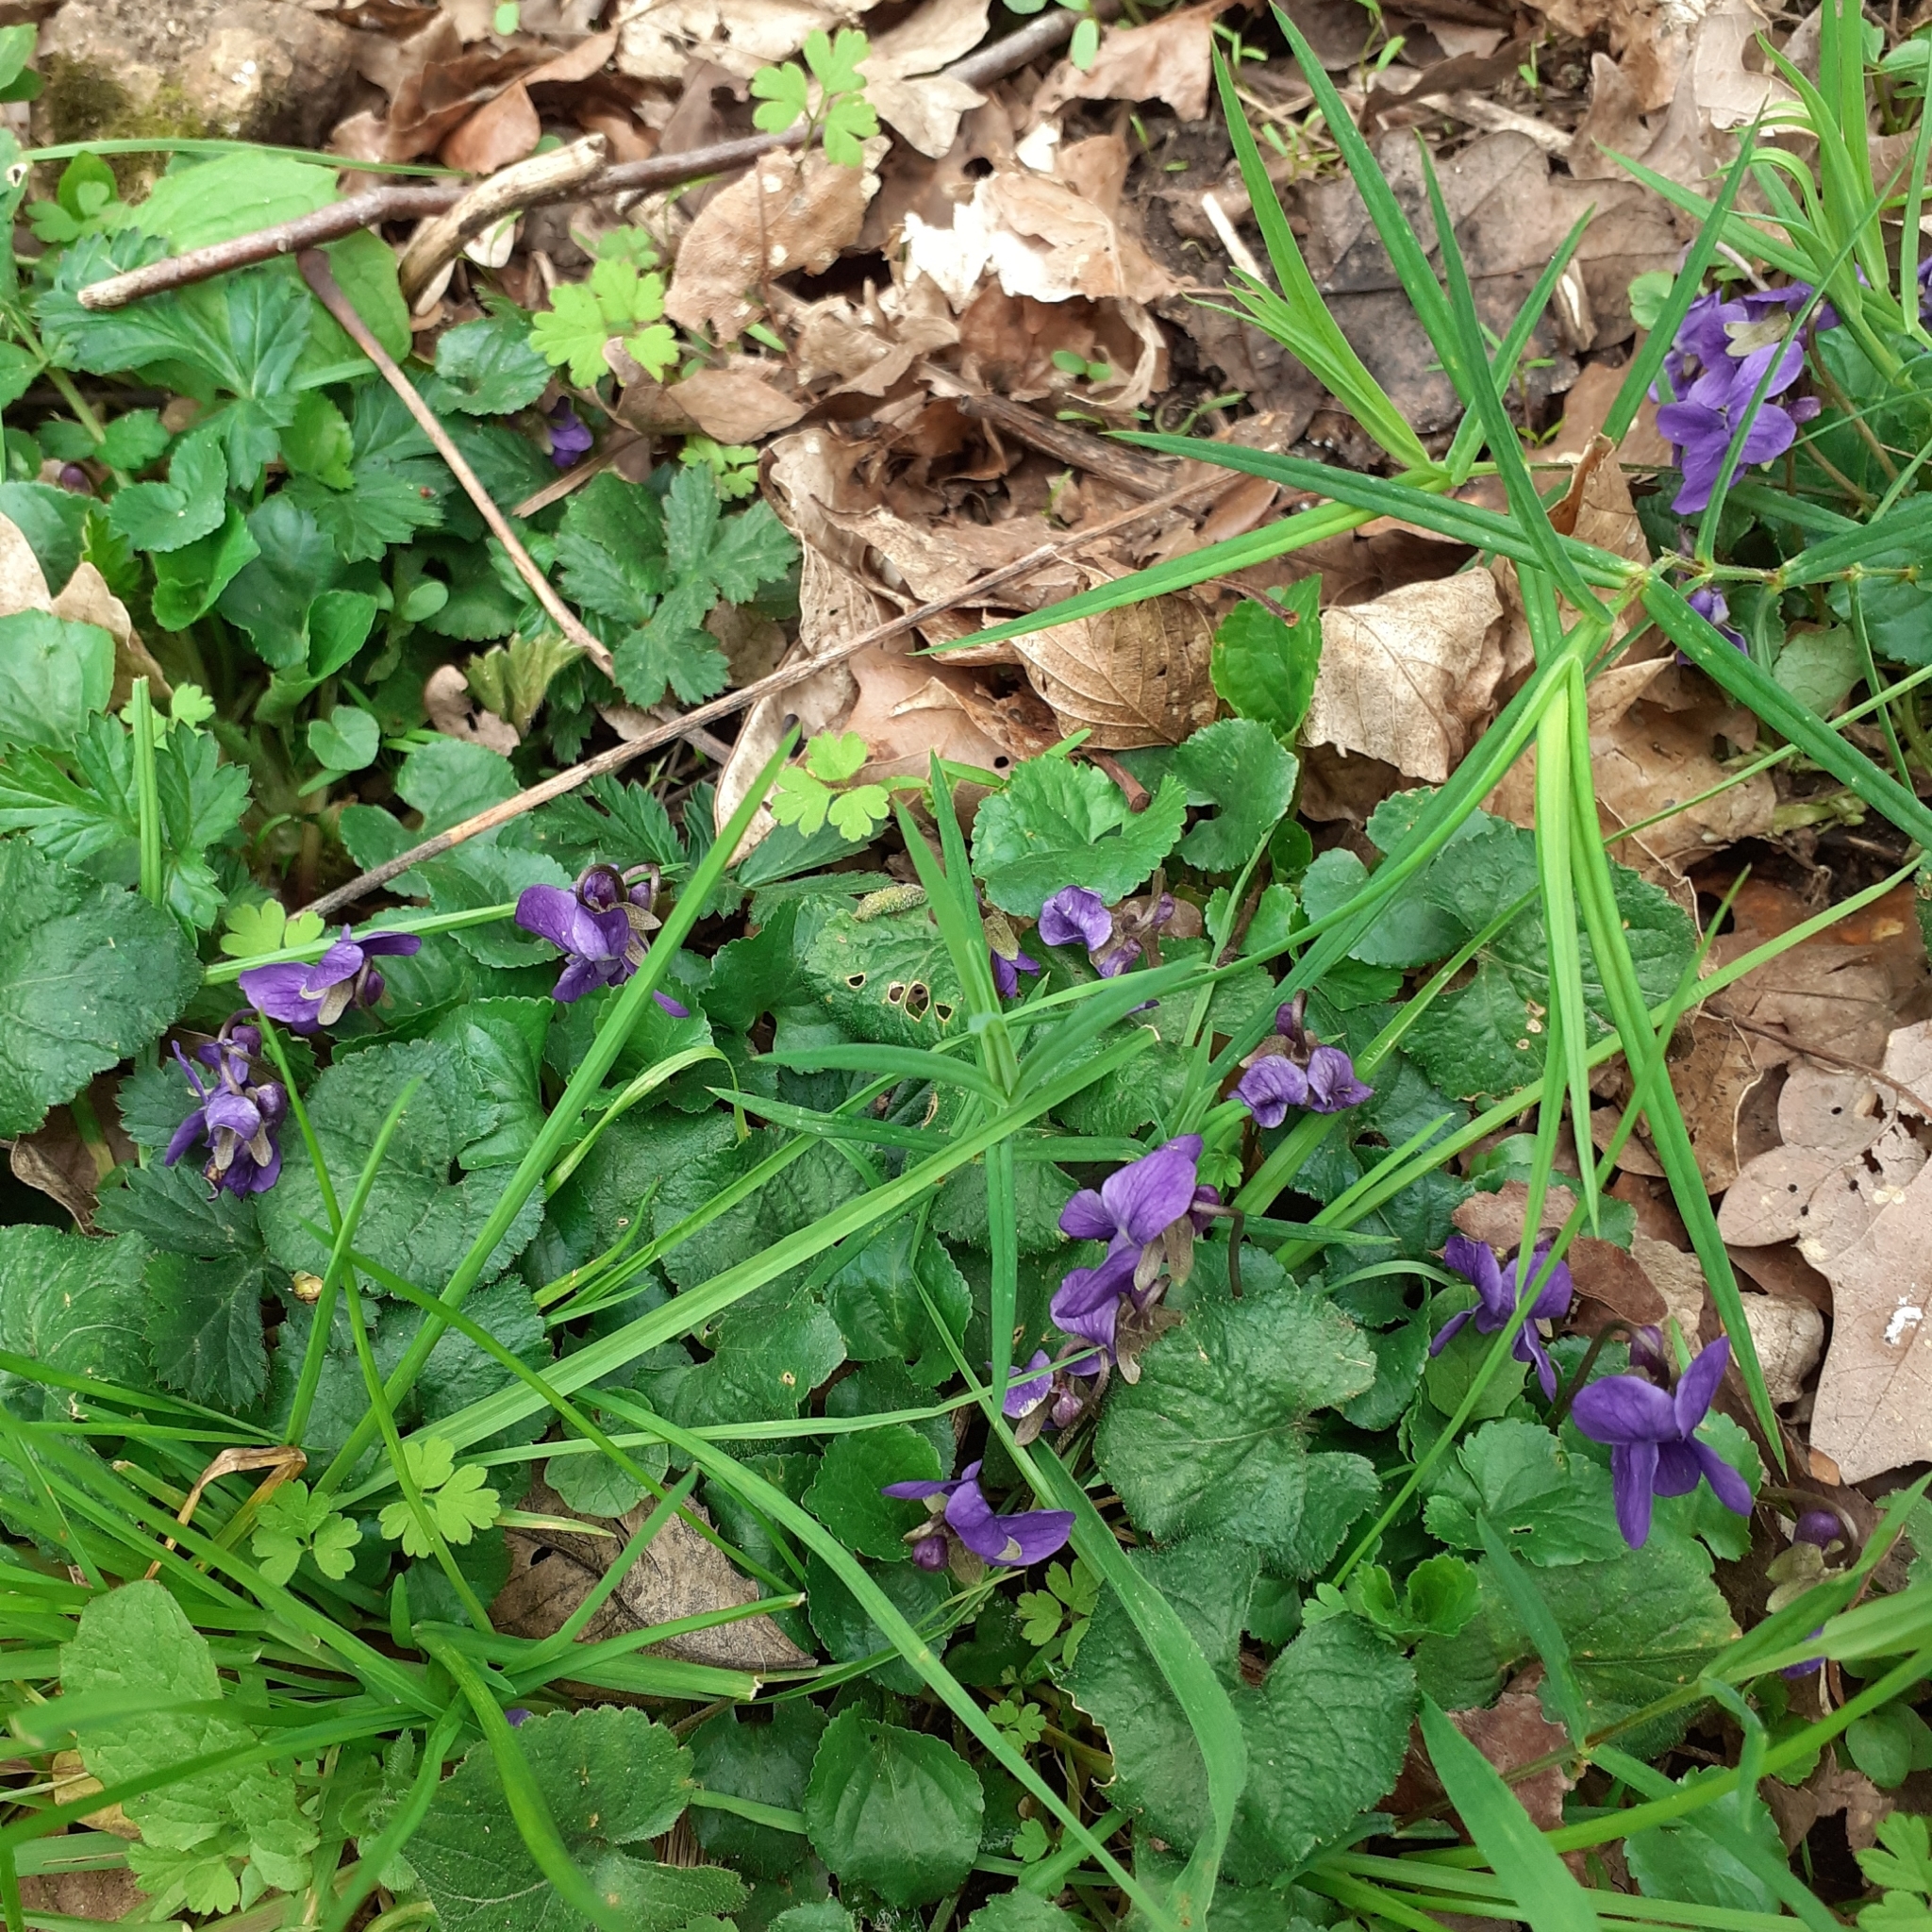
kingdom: Plantae
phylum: Tracheophyta
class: Magnoliopsida
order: Malpighiales
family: Violaceae
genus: Viola
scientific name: Viola odorata
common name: Sweet violet
